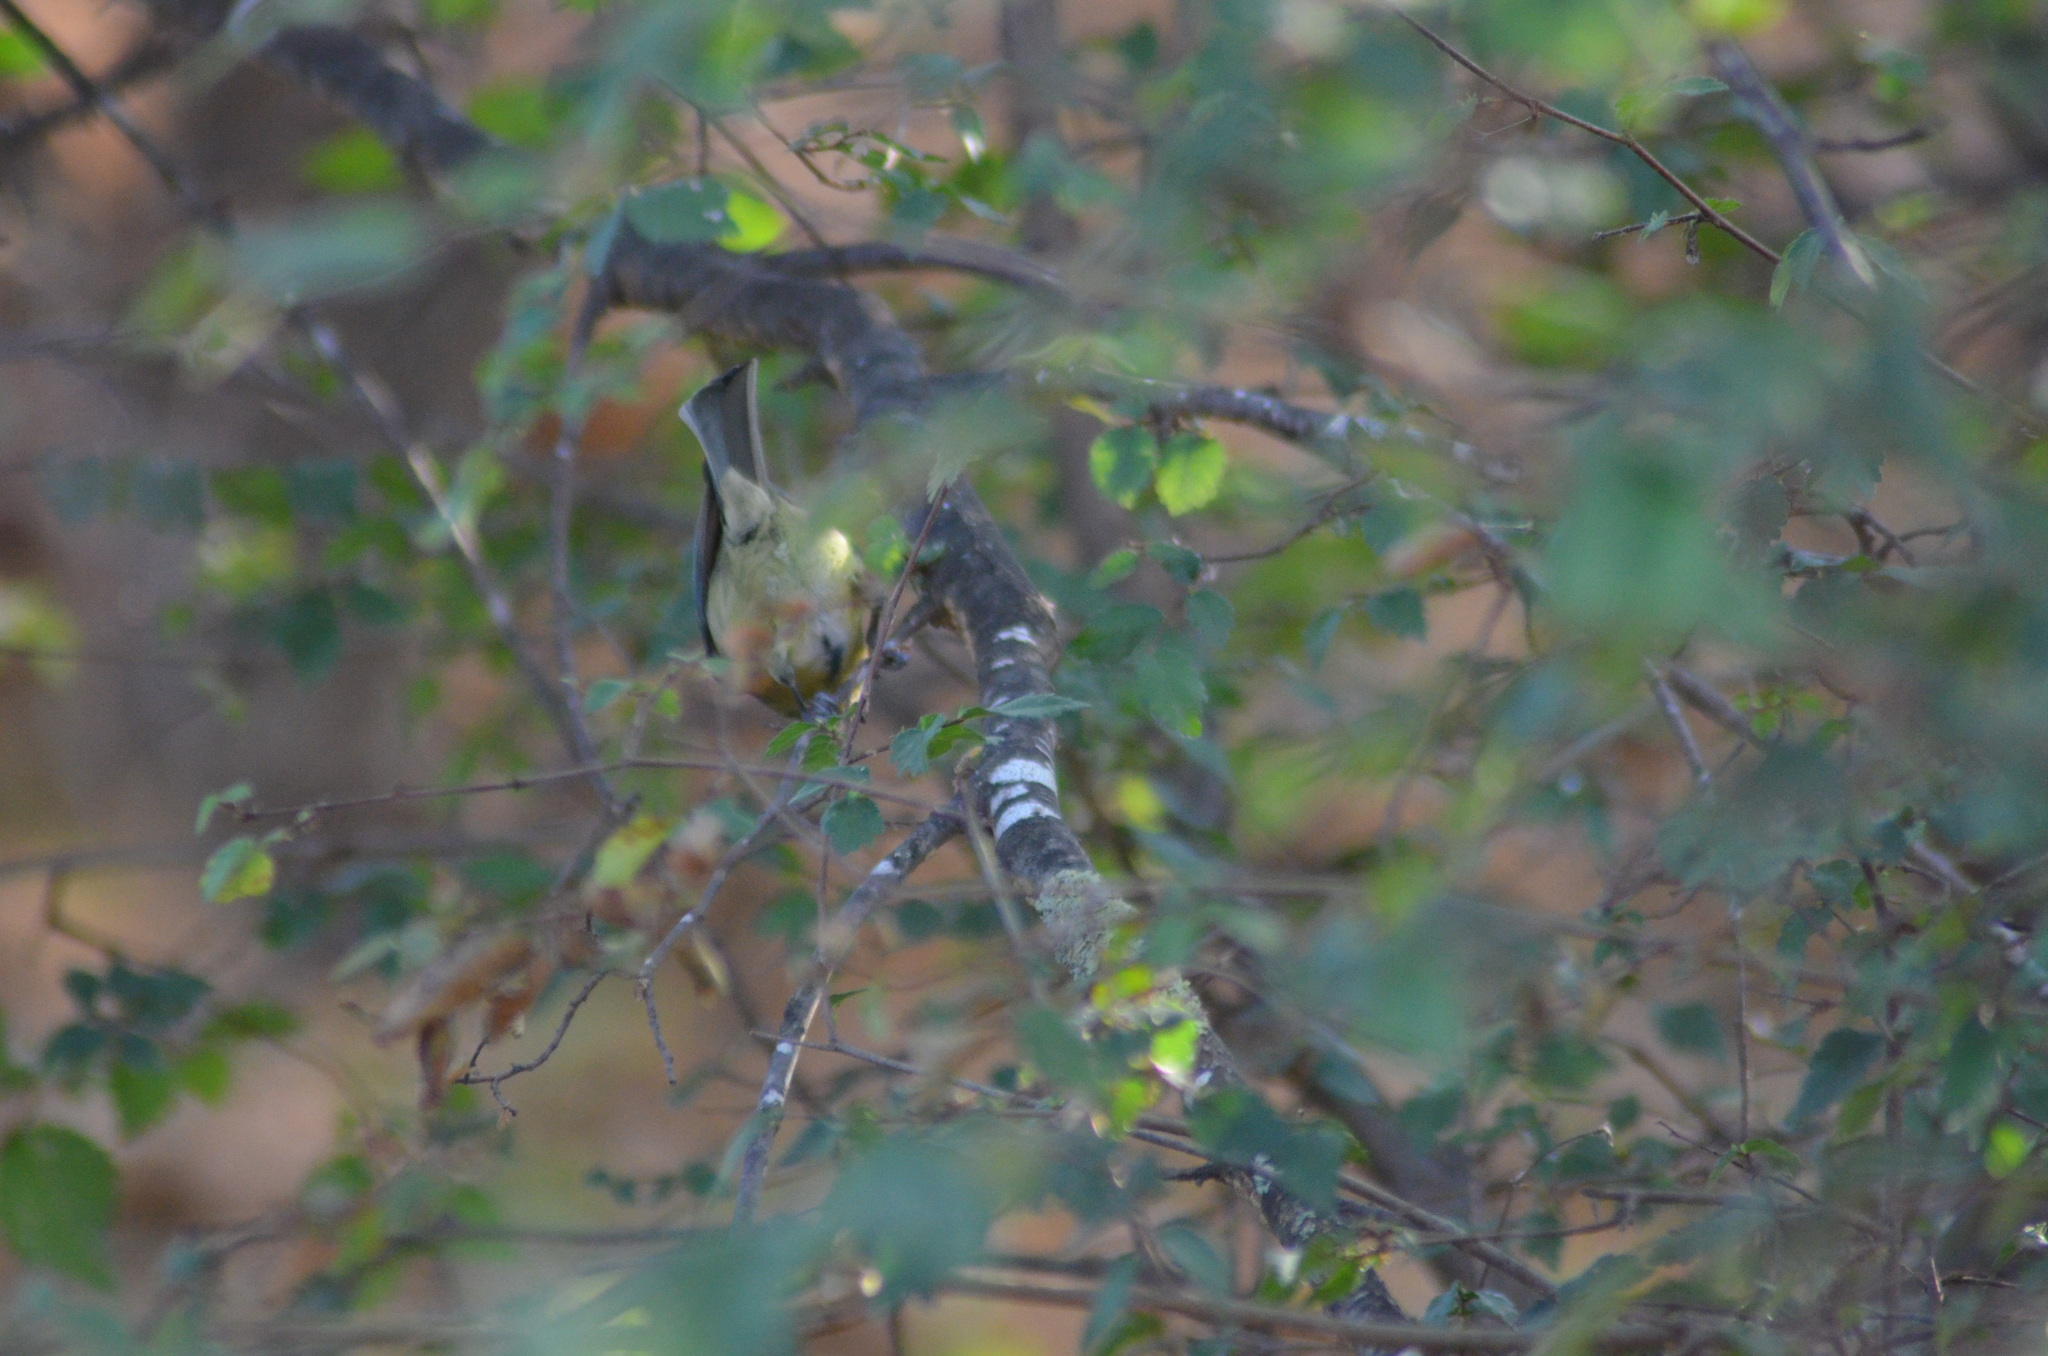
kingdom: Animalia
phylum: Chordata
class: Aves
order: Passeriformes
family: Paridae
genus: Cyanistes
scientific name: Cyanistes caeruleus
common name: Eurasian blue tit
